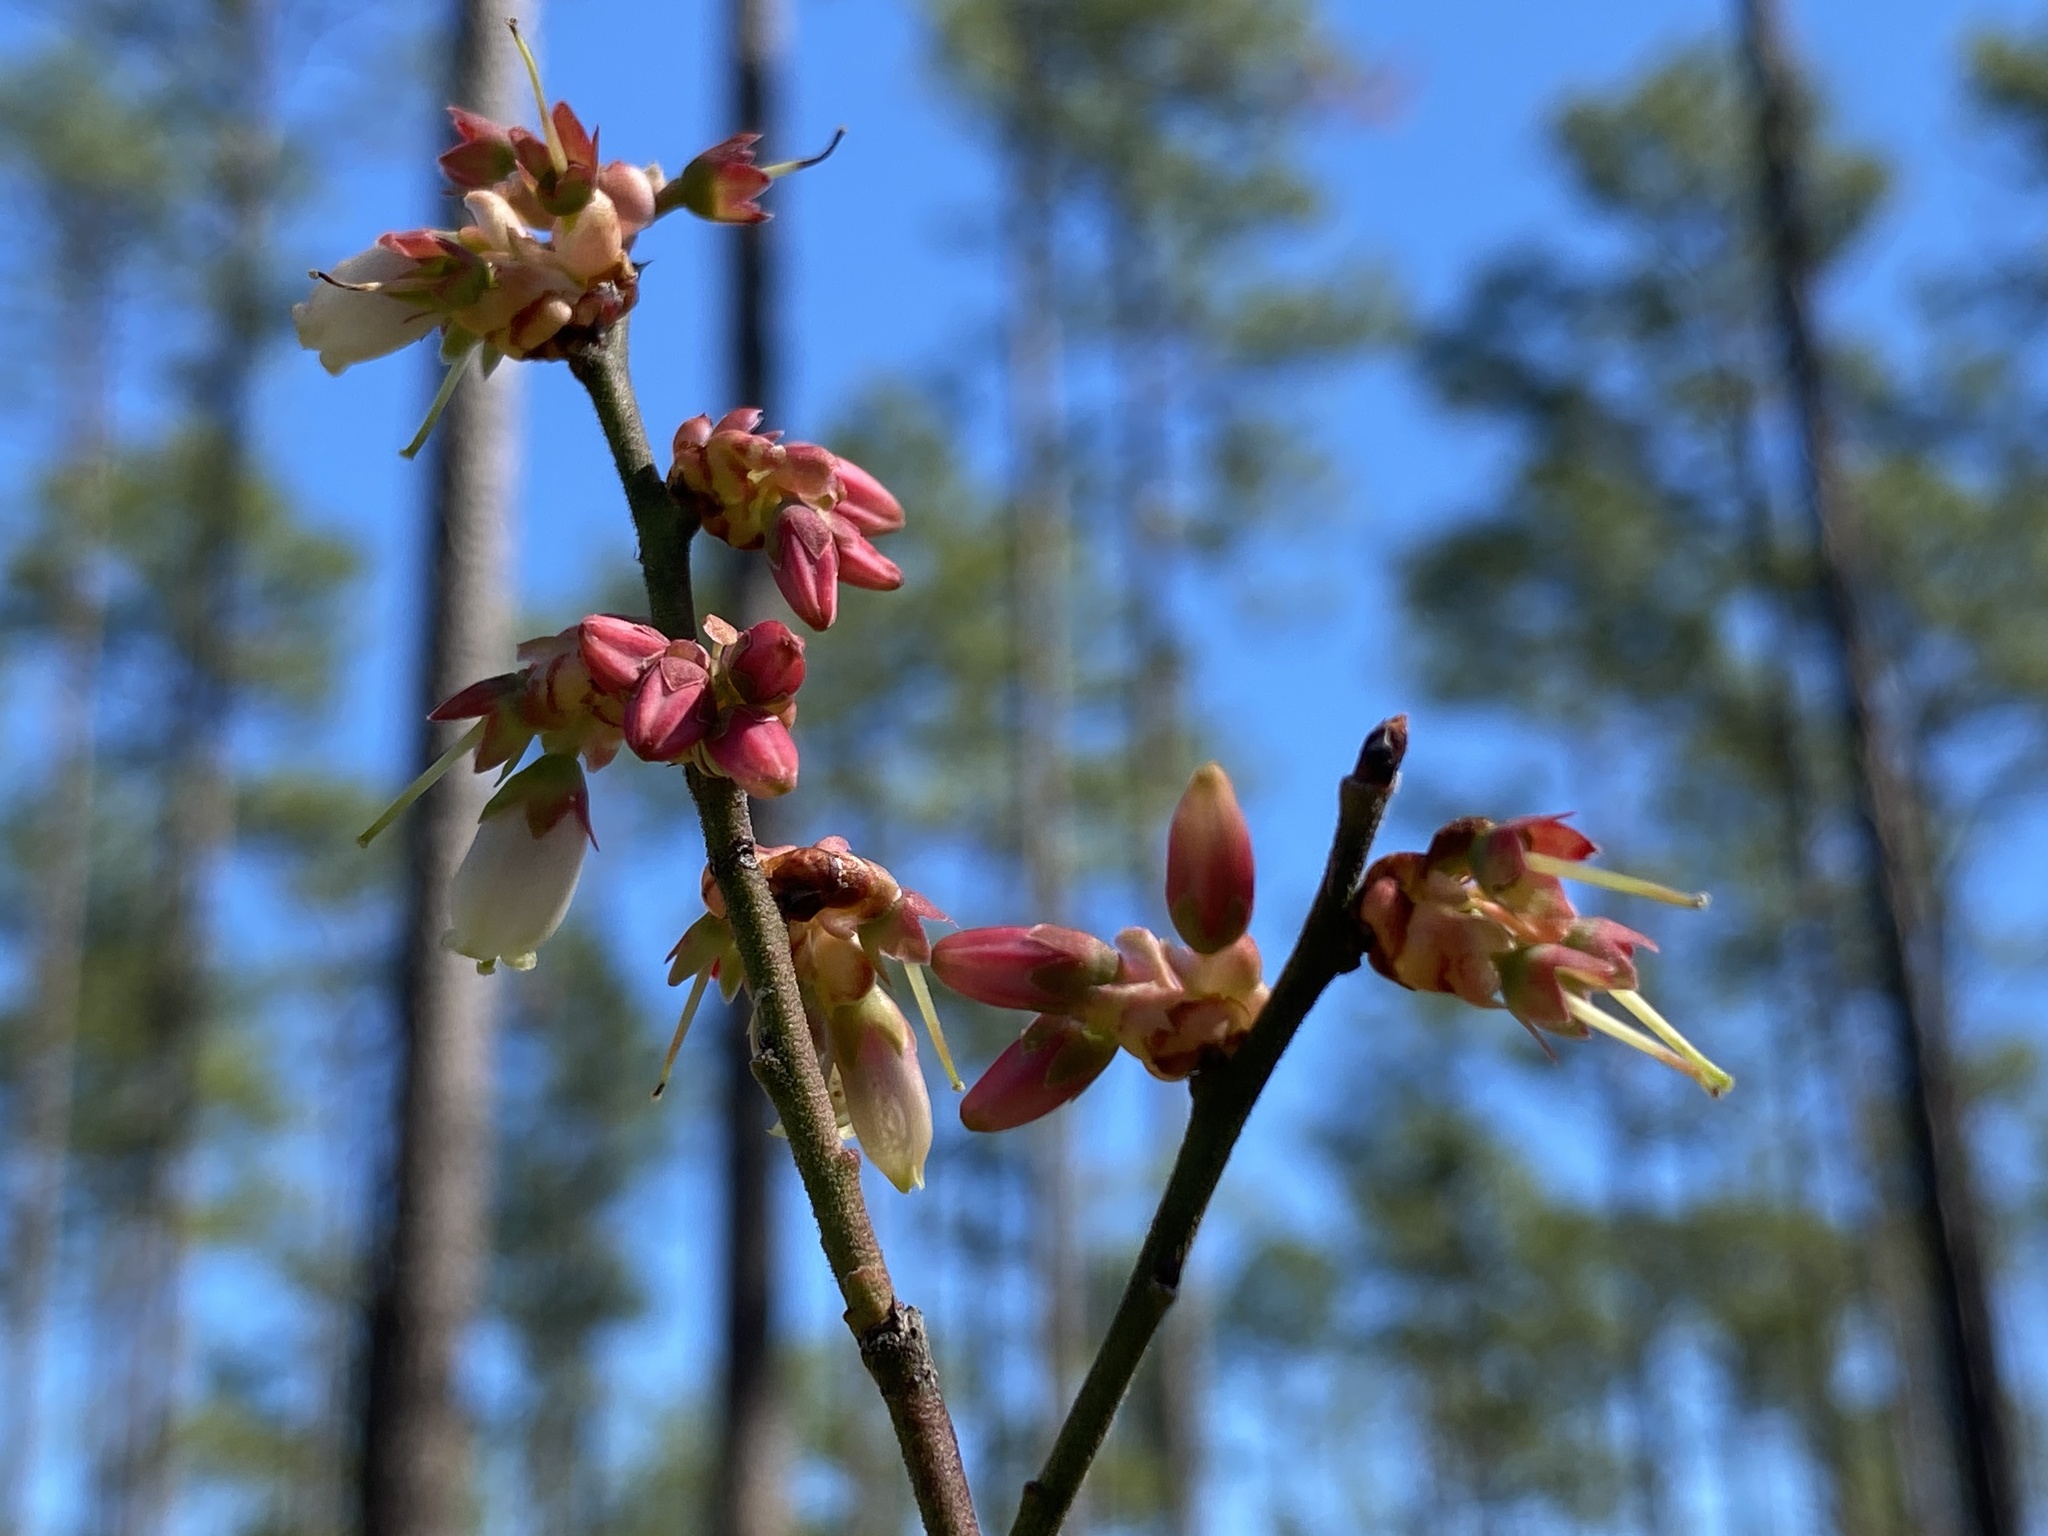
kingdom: Plantae
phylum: Tracheophyta
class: Magnoliopsida
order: Ericales
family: Ericaceae
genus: Vaccinium
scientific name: Vaccinium corymbosum
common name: Blueberry
